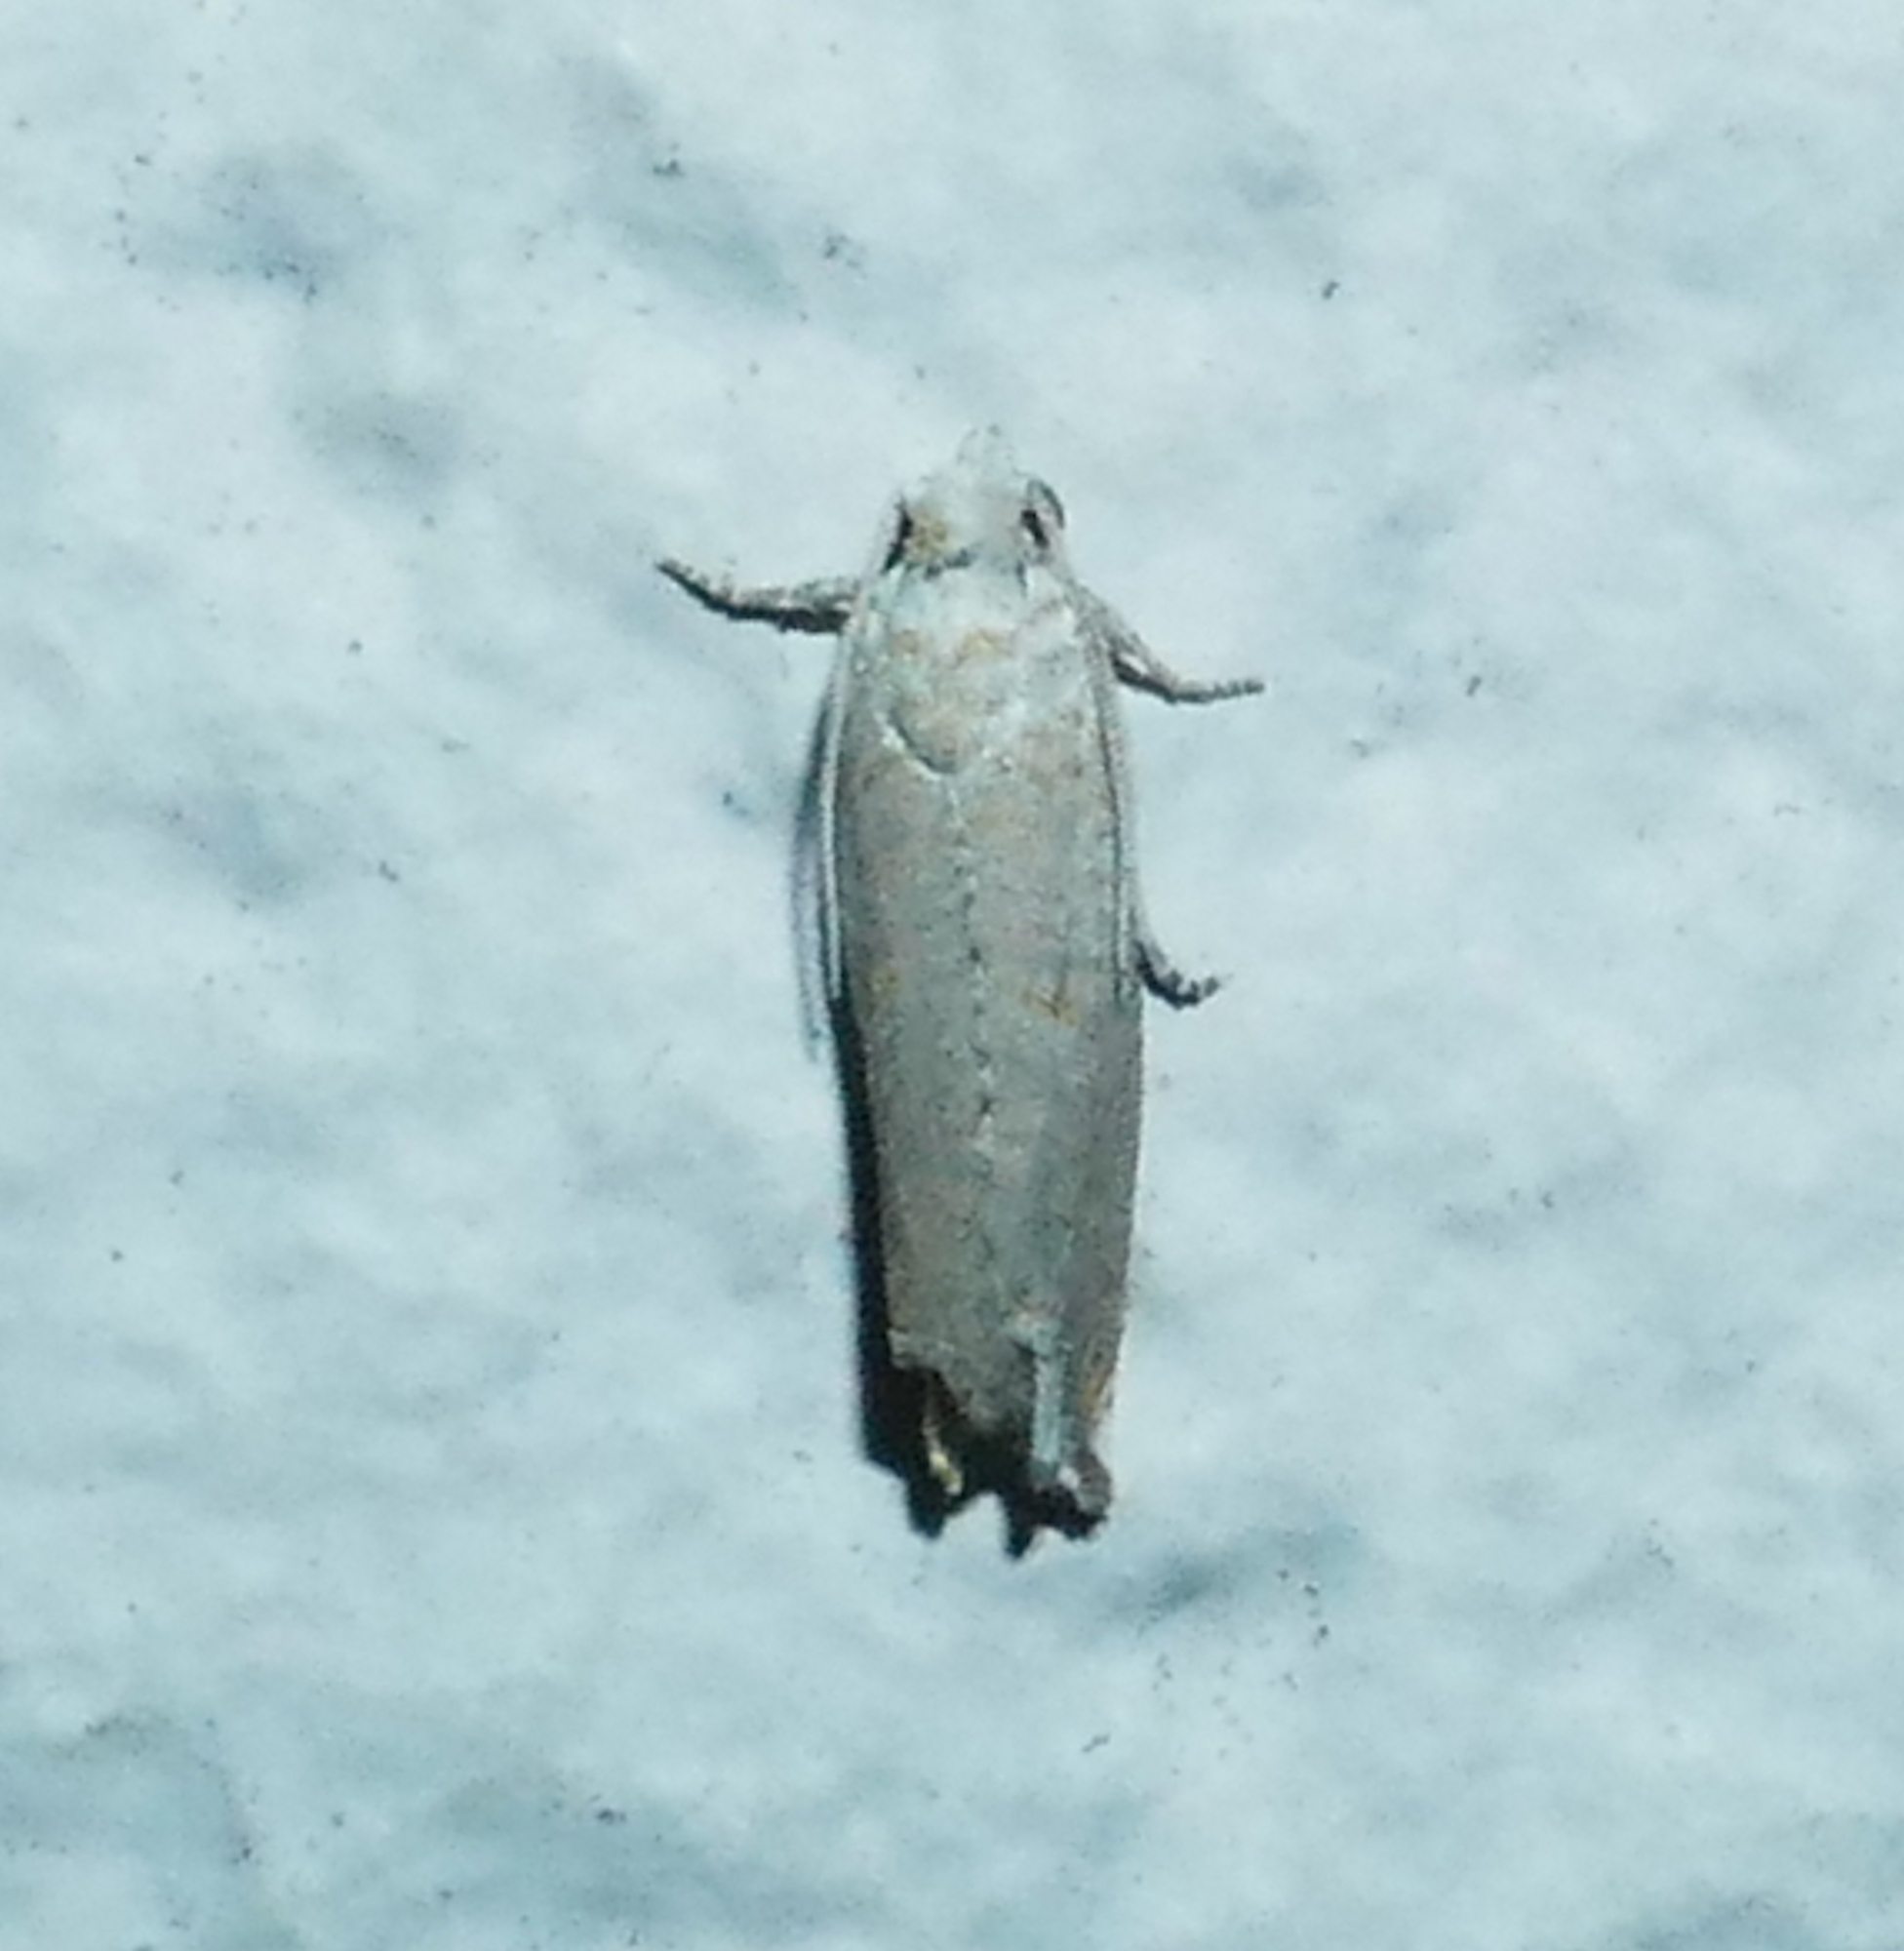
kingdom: Animalia
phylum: Arthropoda
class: Insecta
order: Lepidoptera
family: Tortricidae
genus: Epiblema
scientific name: Epiblema praesumptiosa
